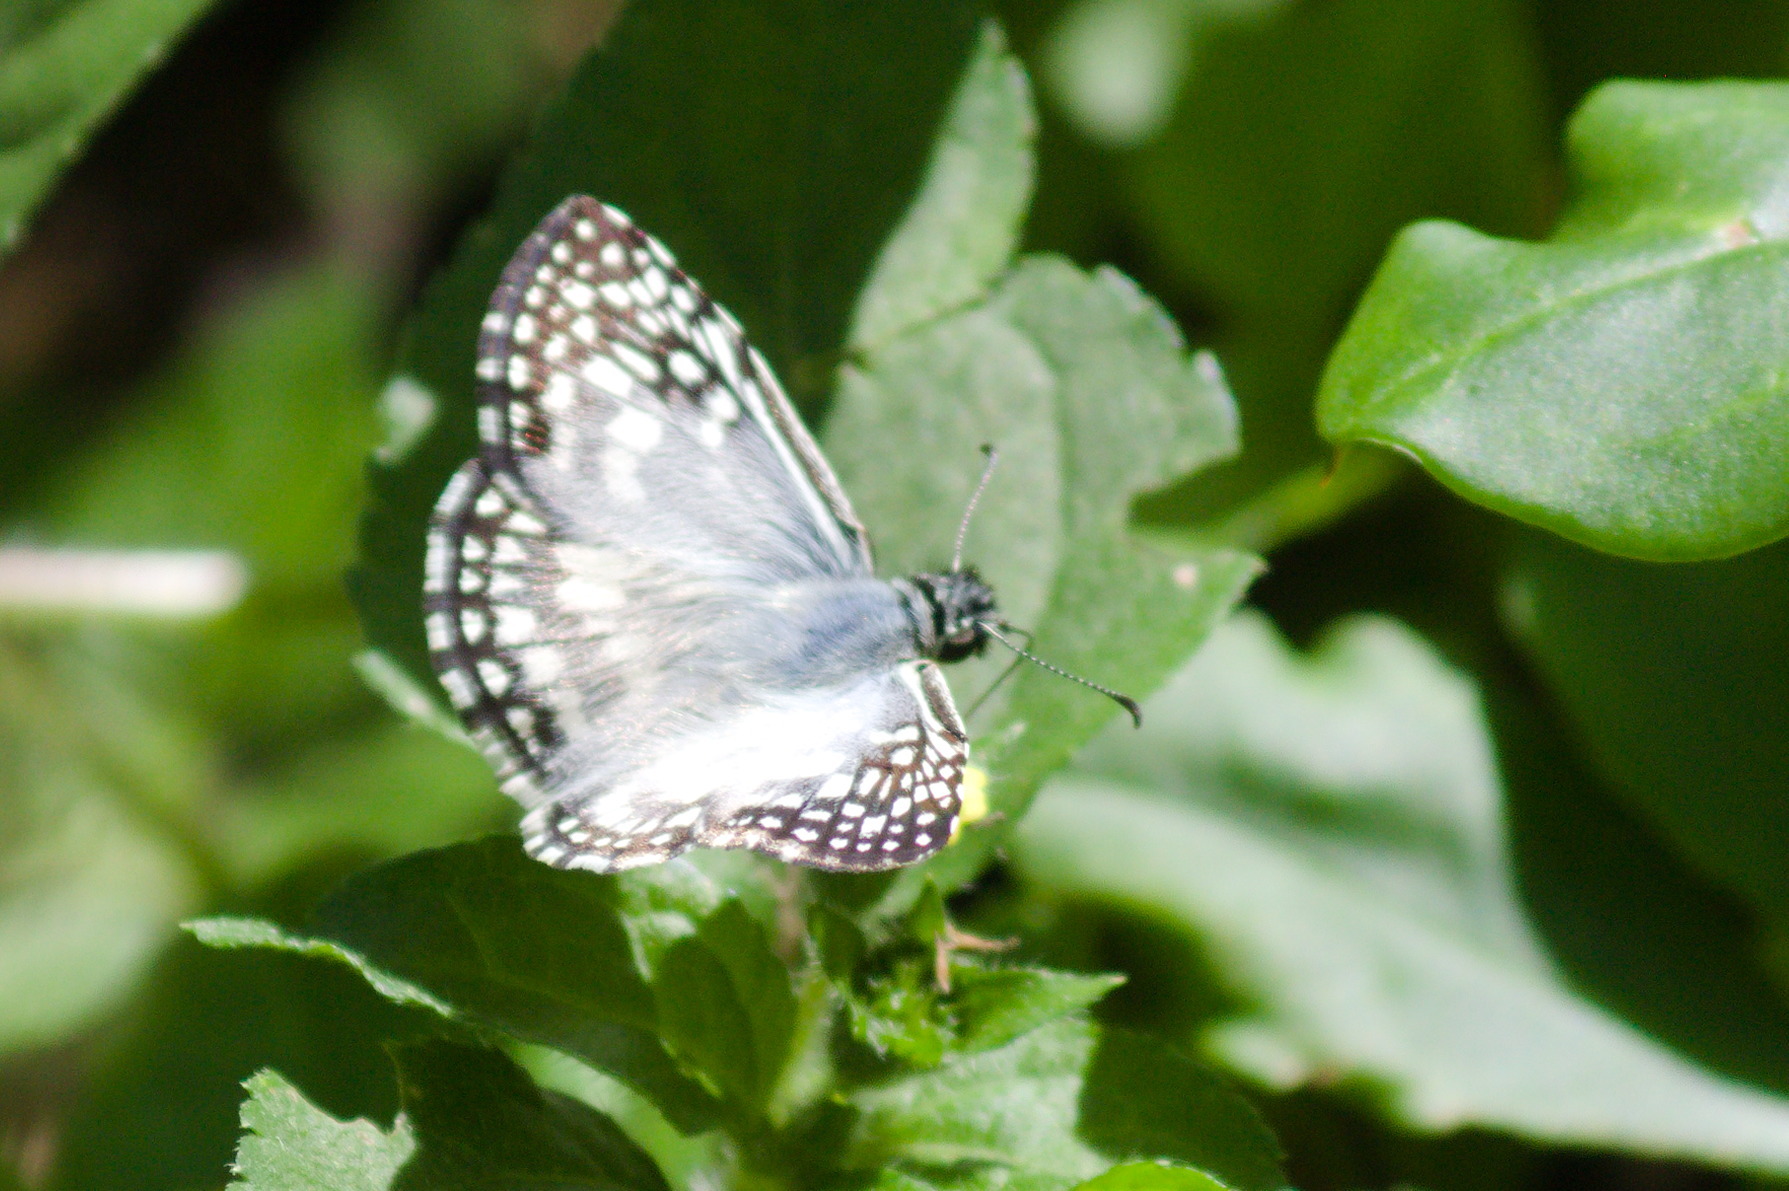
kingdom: Animalia
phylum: Arthropoda
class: Insecta
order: Lepidoptera
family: Hesperiidae
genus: Pyrgus
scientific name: Pyrgus oileus
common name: Tropical checkered-skipper
